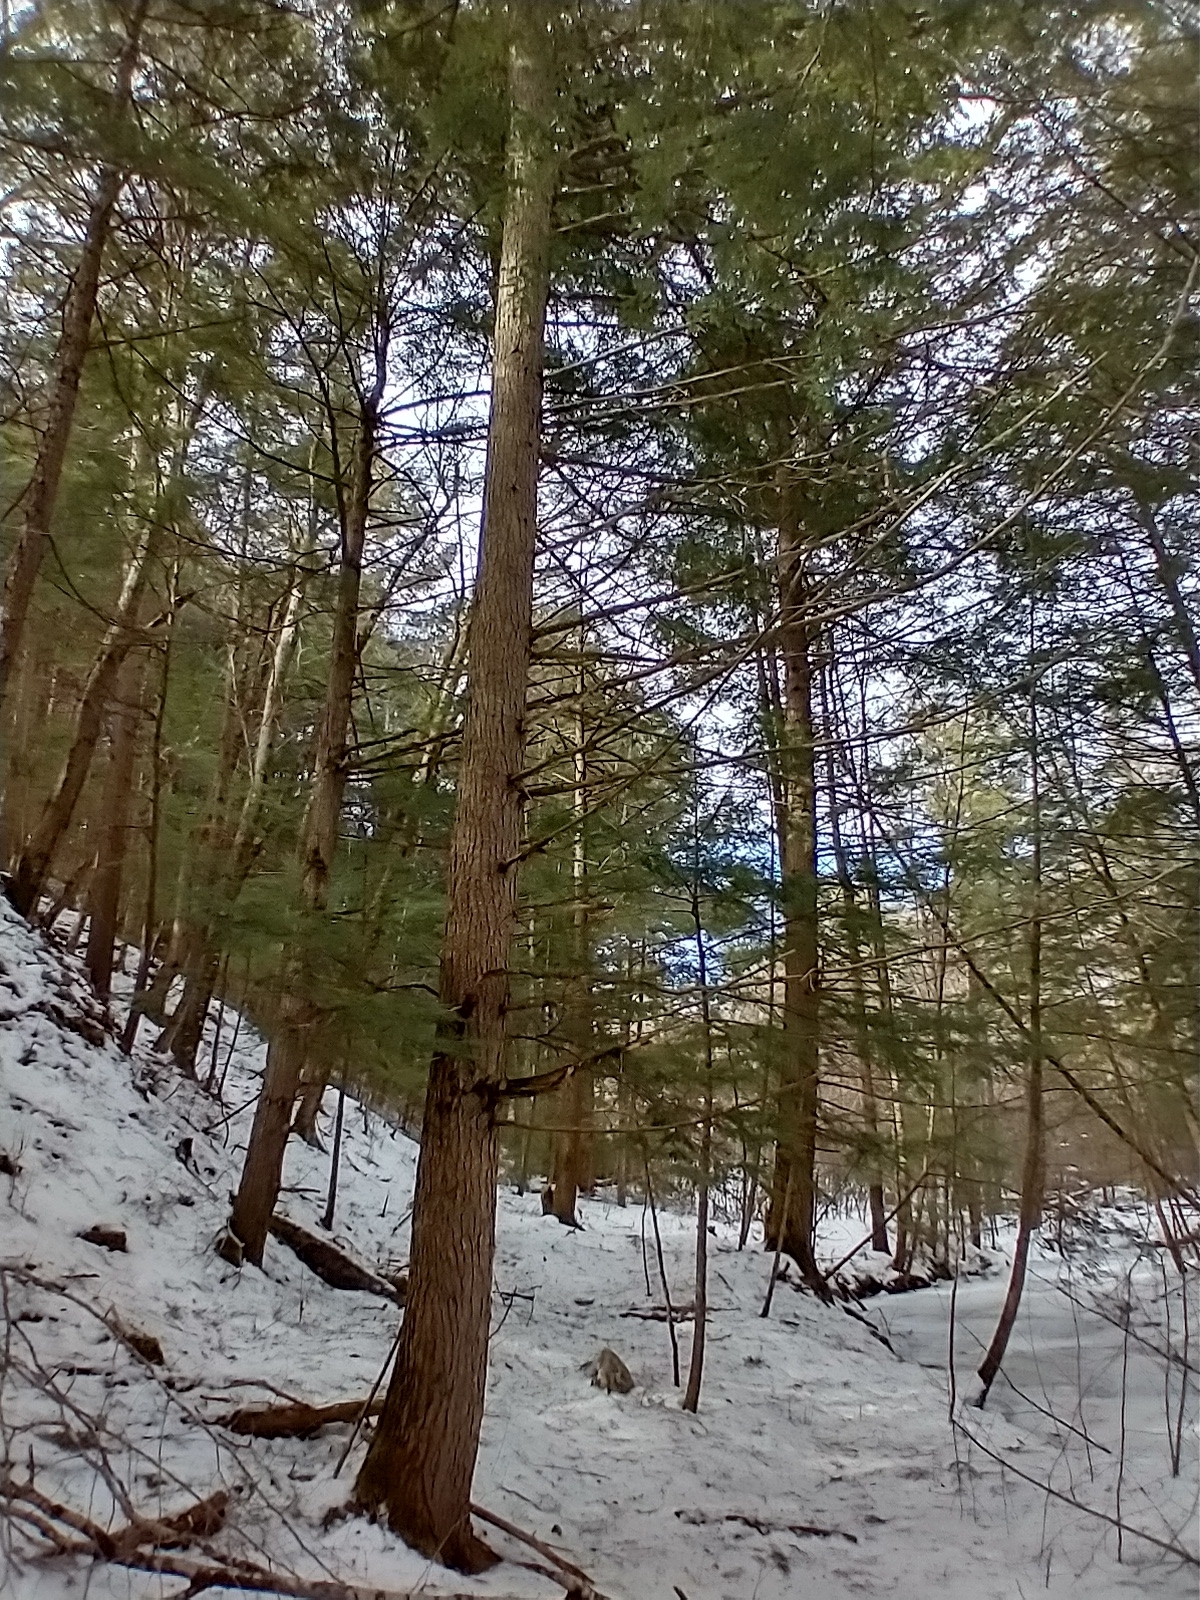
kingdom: Plantae
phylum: Tracheophyta
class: Pinopsida
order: Pinales
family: Pinaceae
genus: Tsuga
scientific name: Tsuga canadensis
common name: Eastern hemlock
